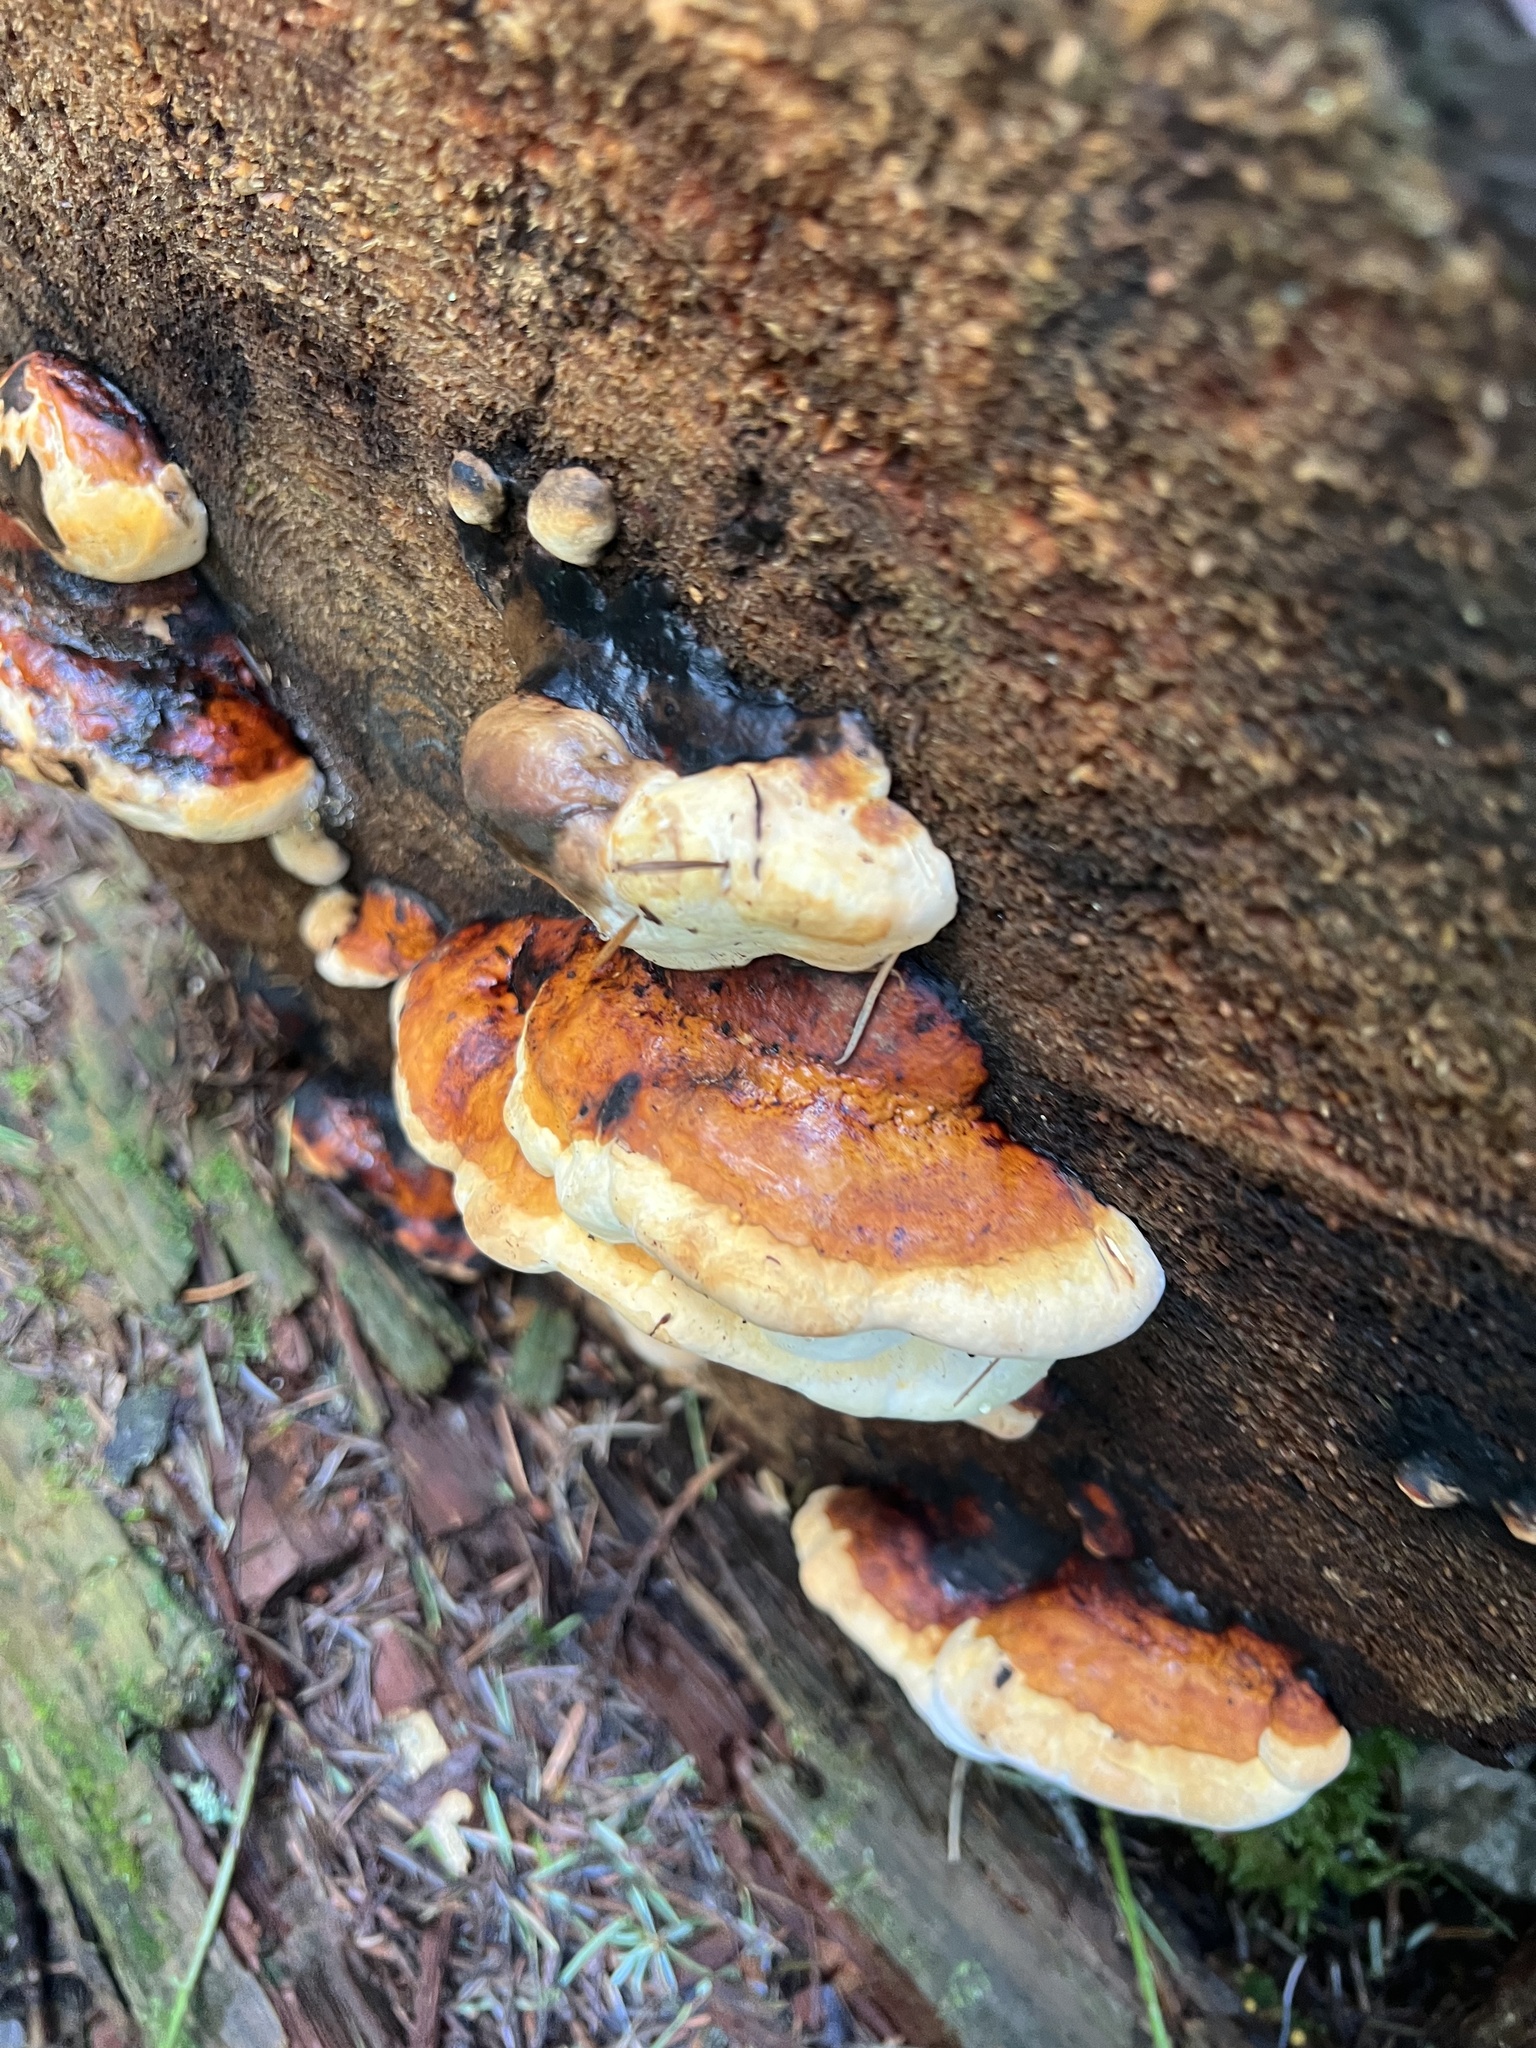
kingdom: Fungi
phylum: Basidiomycota
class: Agaricomycetes
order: Polyporales
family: Fomitopsidaceae
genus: Fomitopsis
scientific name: Fomitopsis mounceae
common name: Northern red belt
